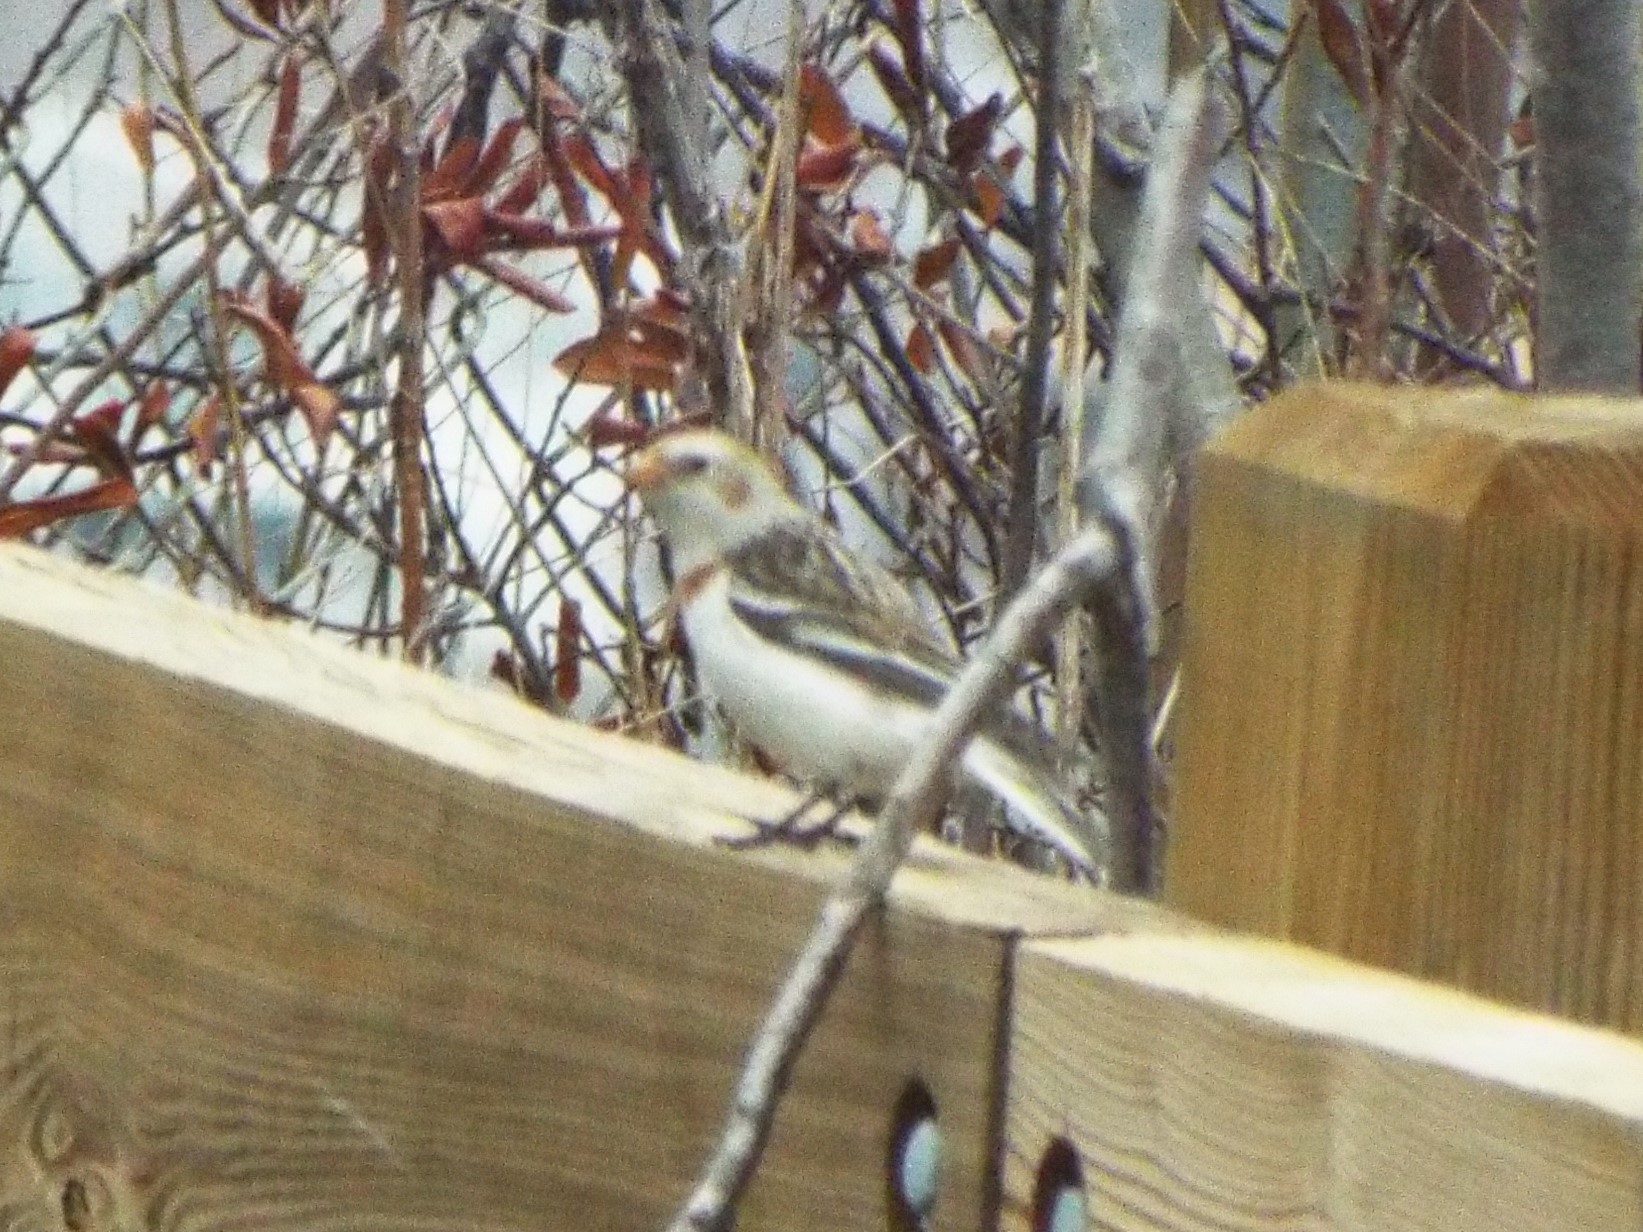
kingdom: Animalia
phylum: Chordata
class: Aves
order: Passeriformes
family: Calcariidae
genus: Plectrophenax
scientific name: Plectrophenax nivalis
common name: Snow bunting
